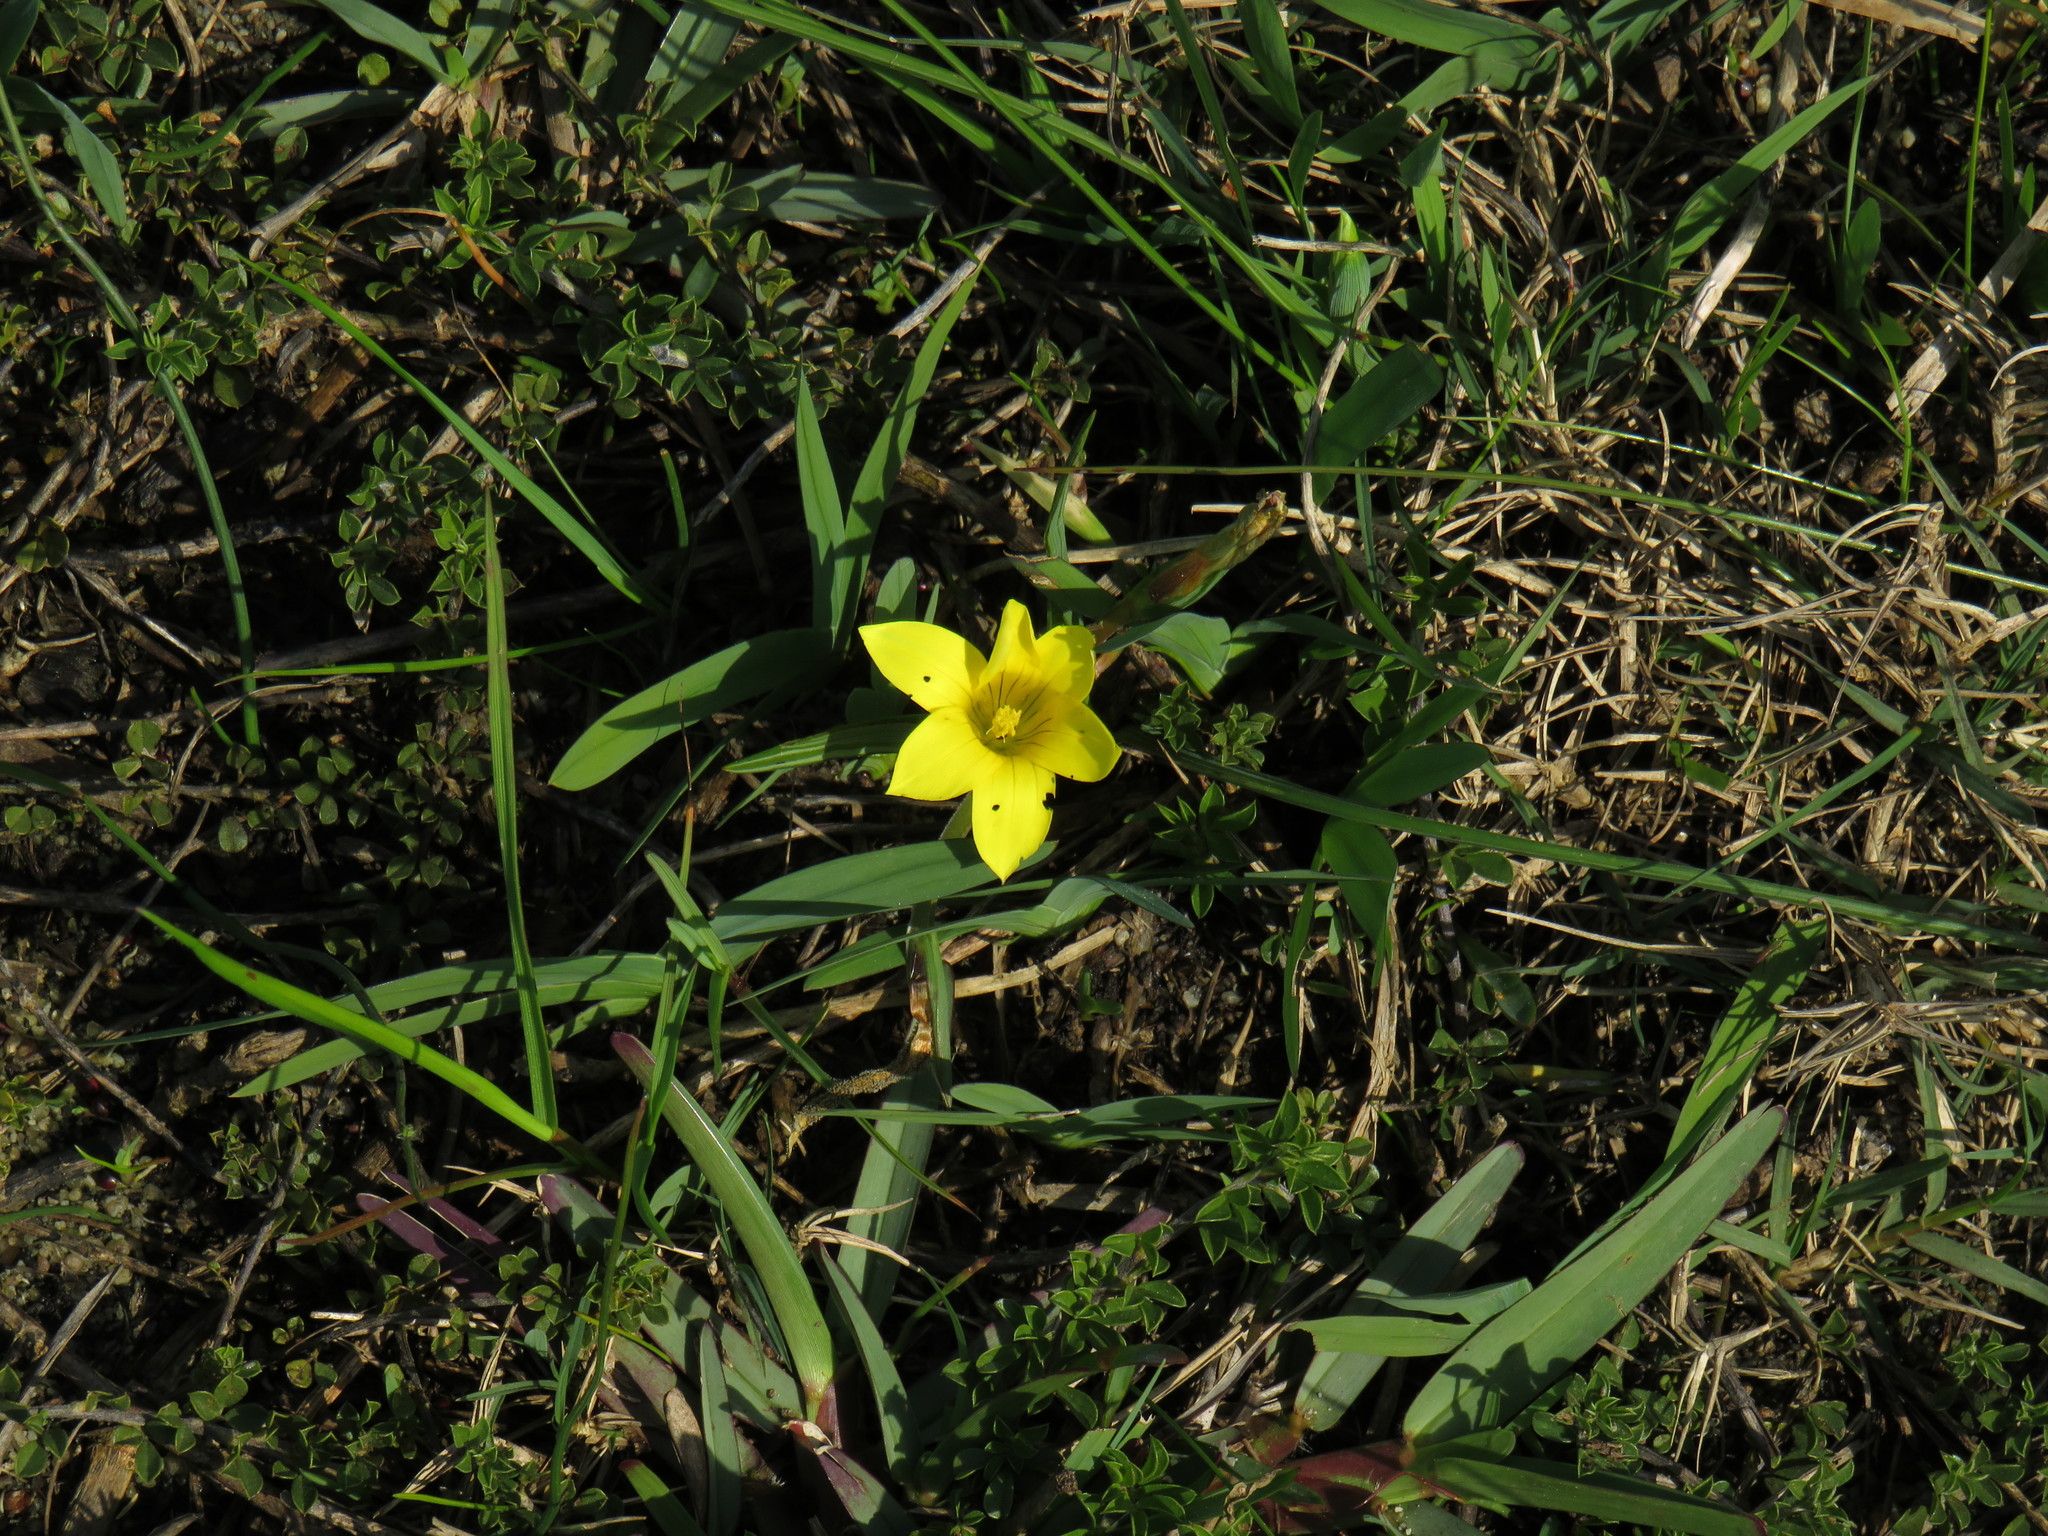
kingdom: Plantae
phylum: Tracheophyta
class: Liliopsida
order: Asparagales
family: Iridaceae
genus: Romulea
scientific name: Romulea flava
